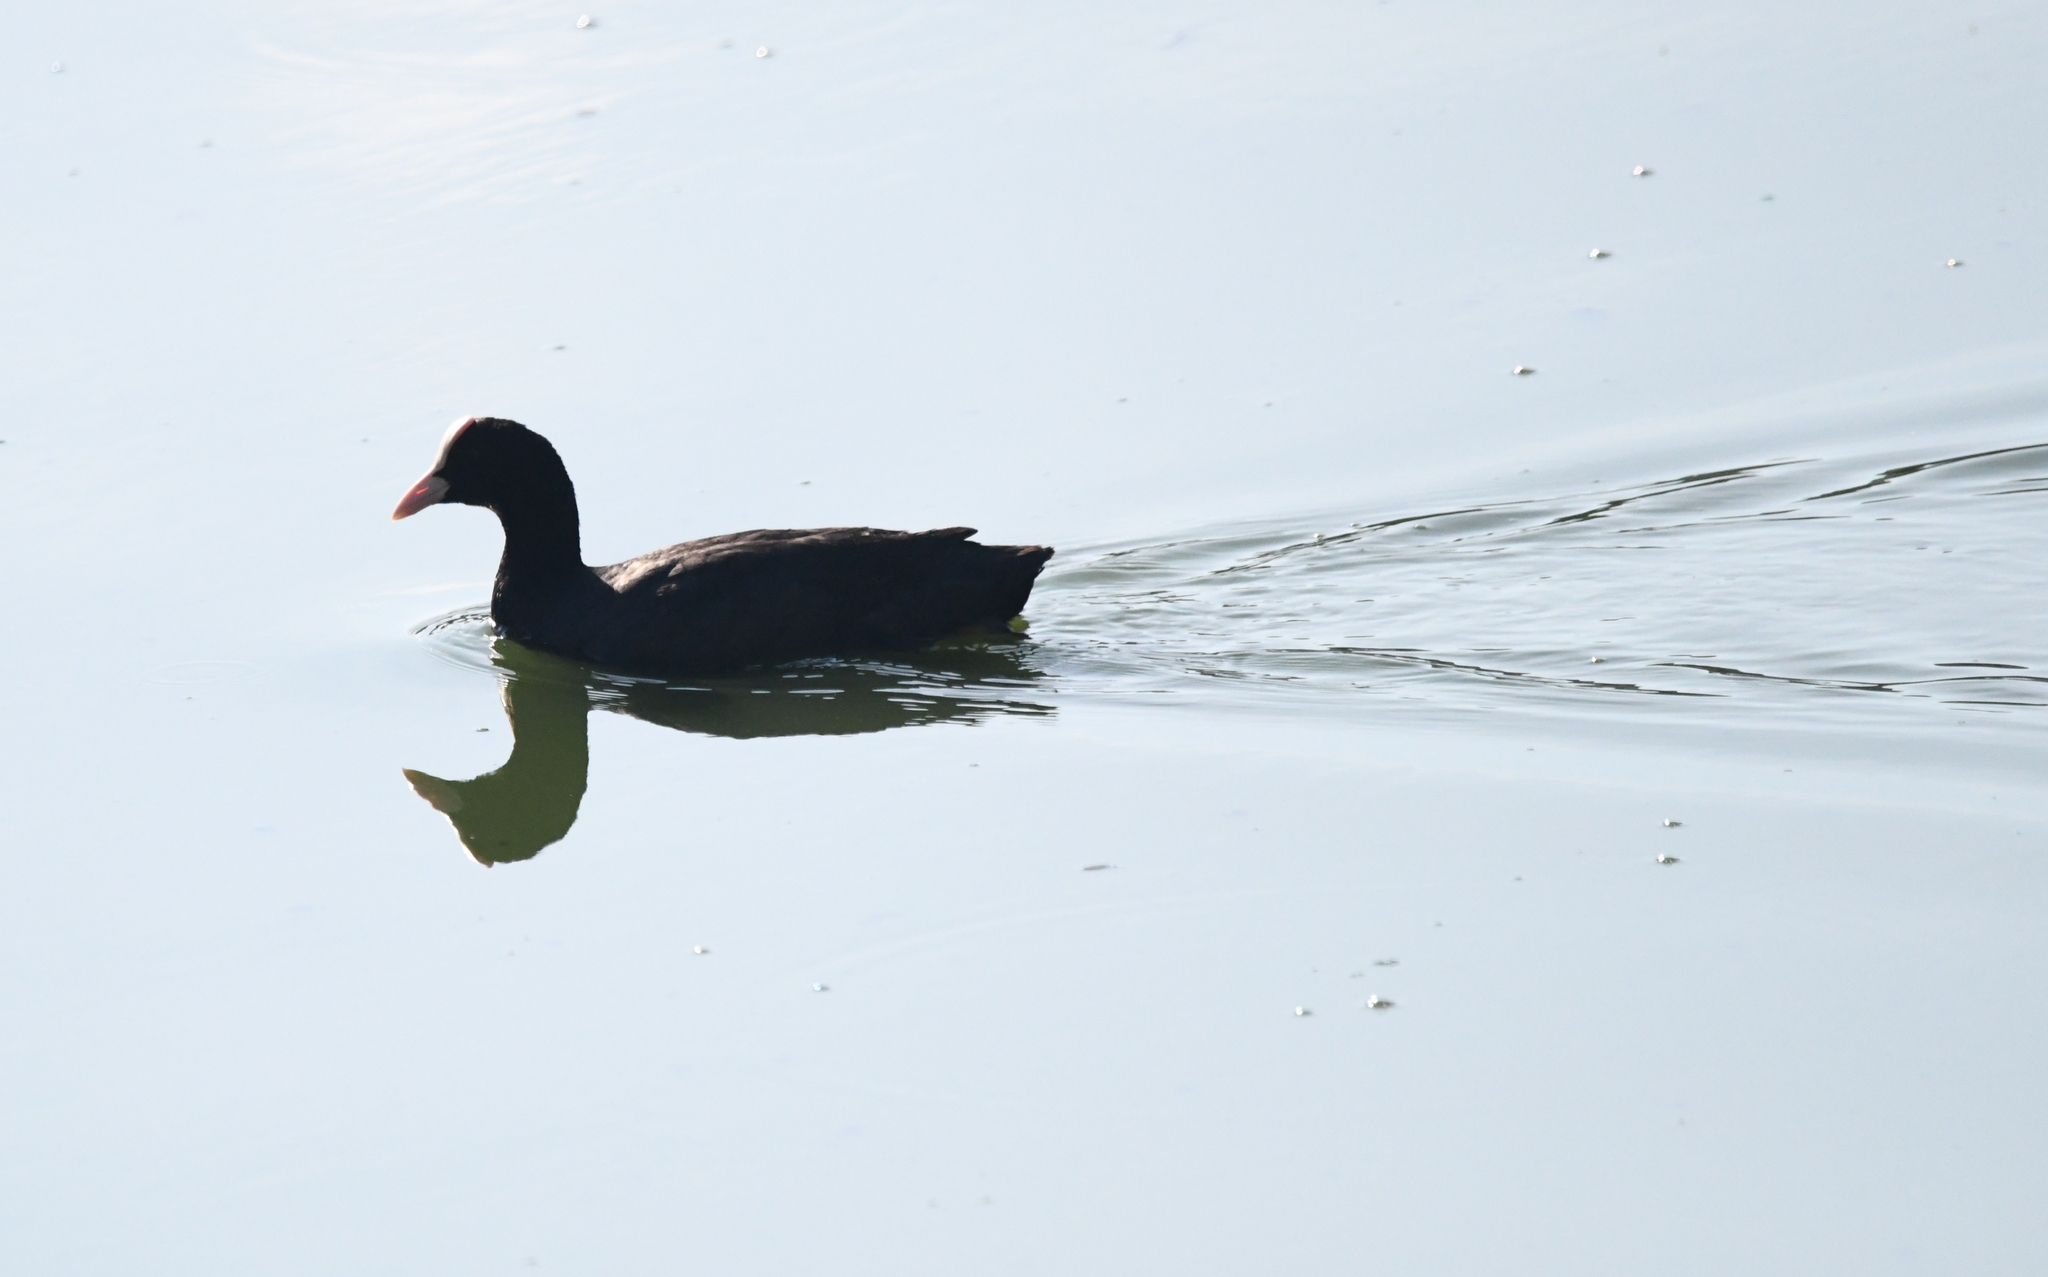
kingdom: Animalia
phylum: Chordata
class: Aves
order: Gruiformes
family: Rallidae
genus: Fulica
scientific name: Fulica atra
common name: Eurasian coot
